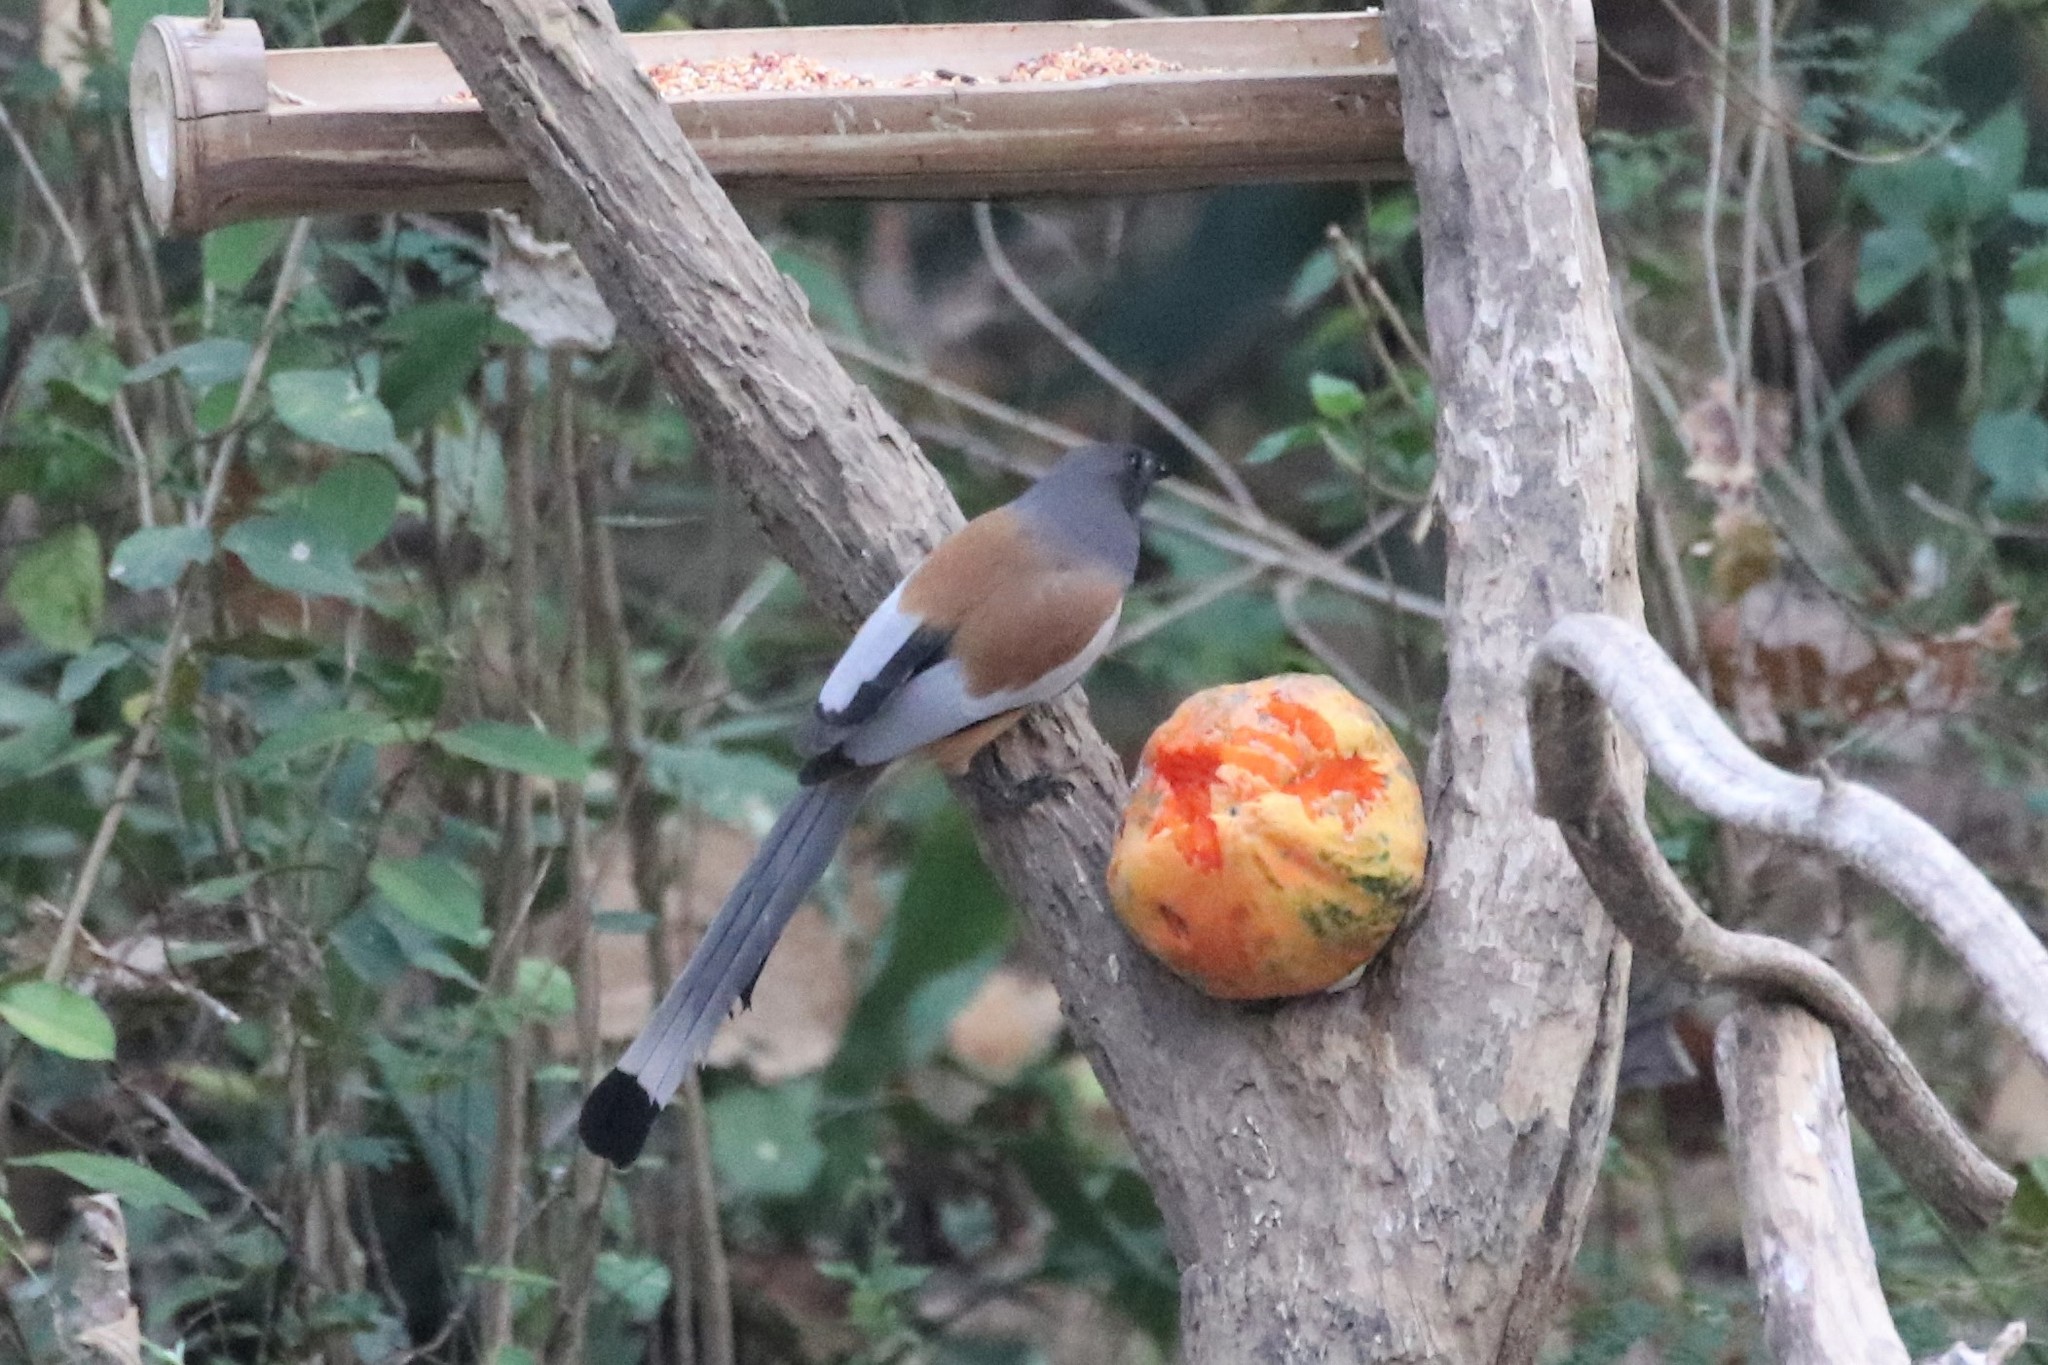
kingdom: Animalia
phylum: Chordata
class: Aves
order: Passeriformes
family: Corvidae
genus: Dendrocitta
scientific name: Dendrocitta vagabunda
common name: Rufous treepie
